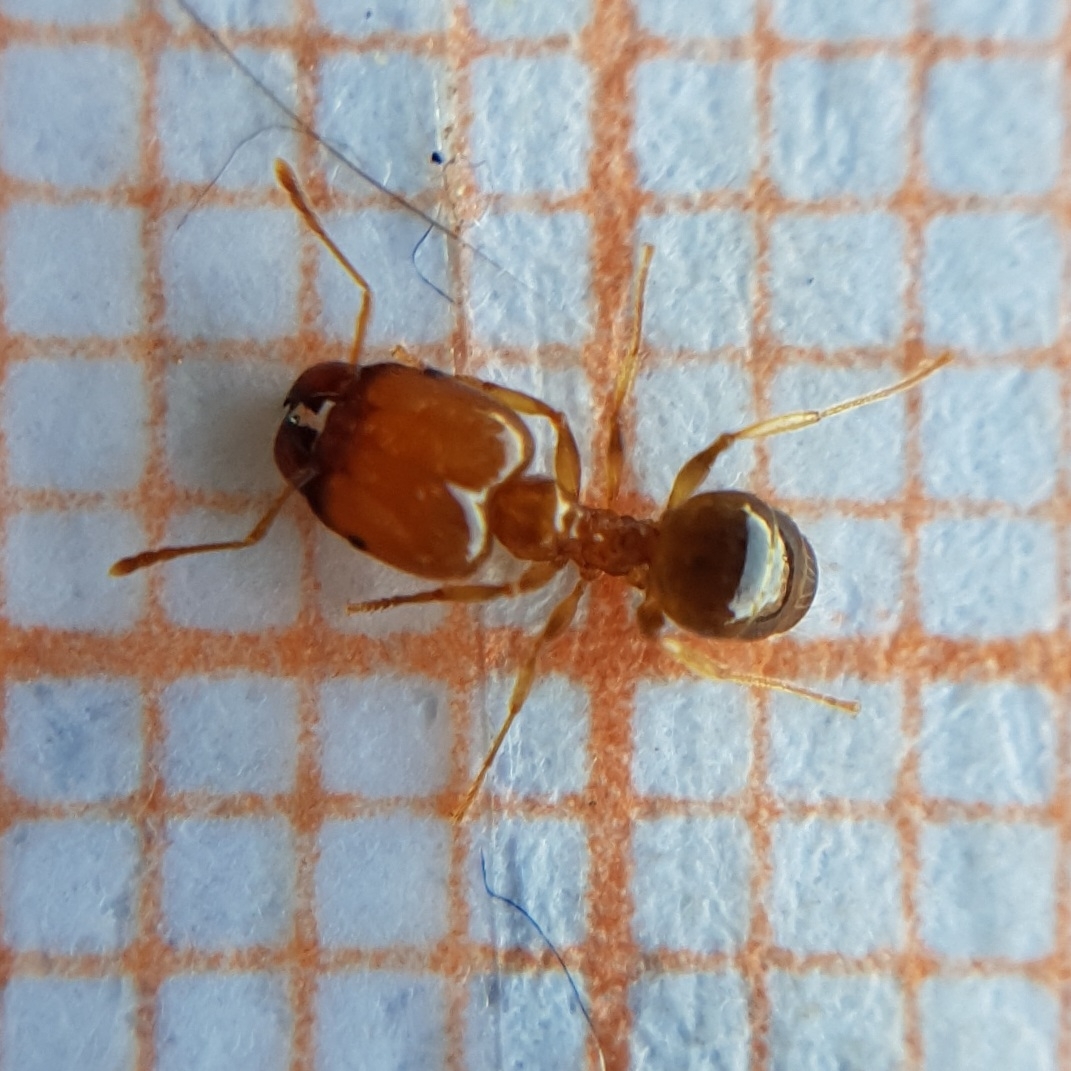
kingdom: Animalia
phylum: Arthropoda
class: Insecta
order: Hymenoptera
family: Formicidae
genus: Pheidole
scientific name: Pheidole megacephala
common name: Bigheaded ant
